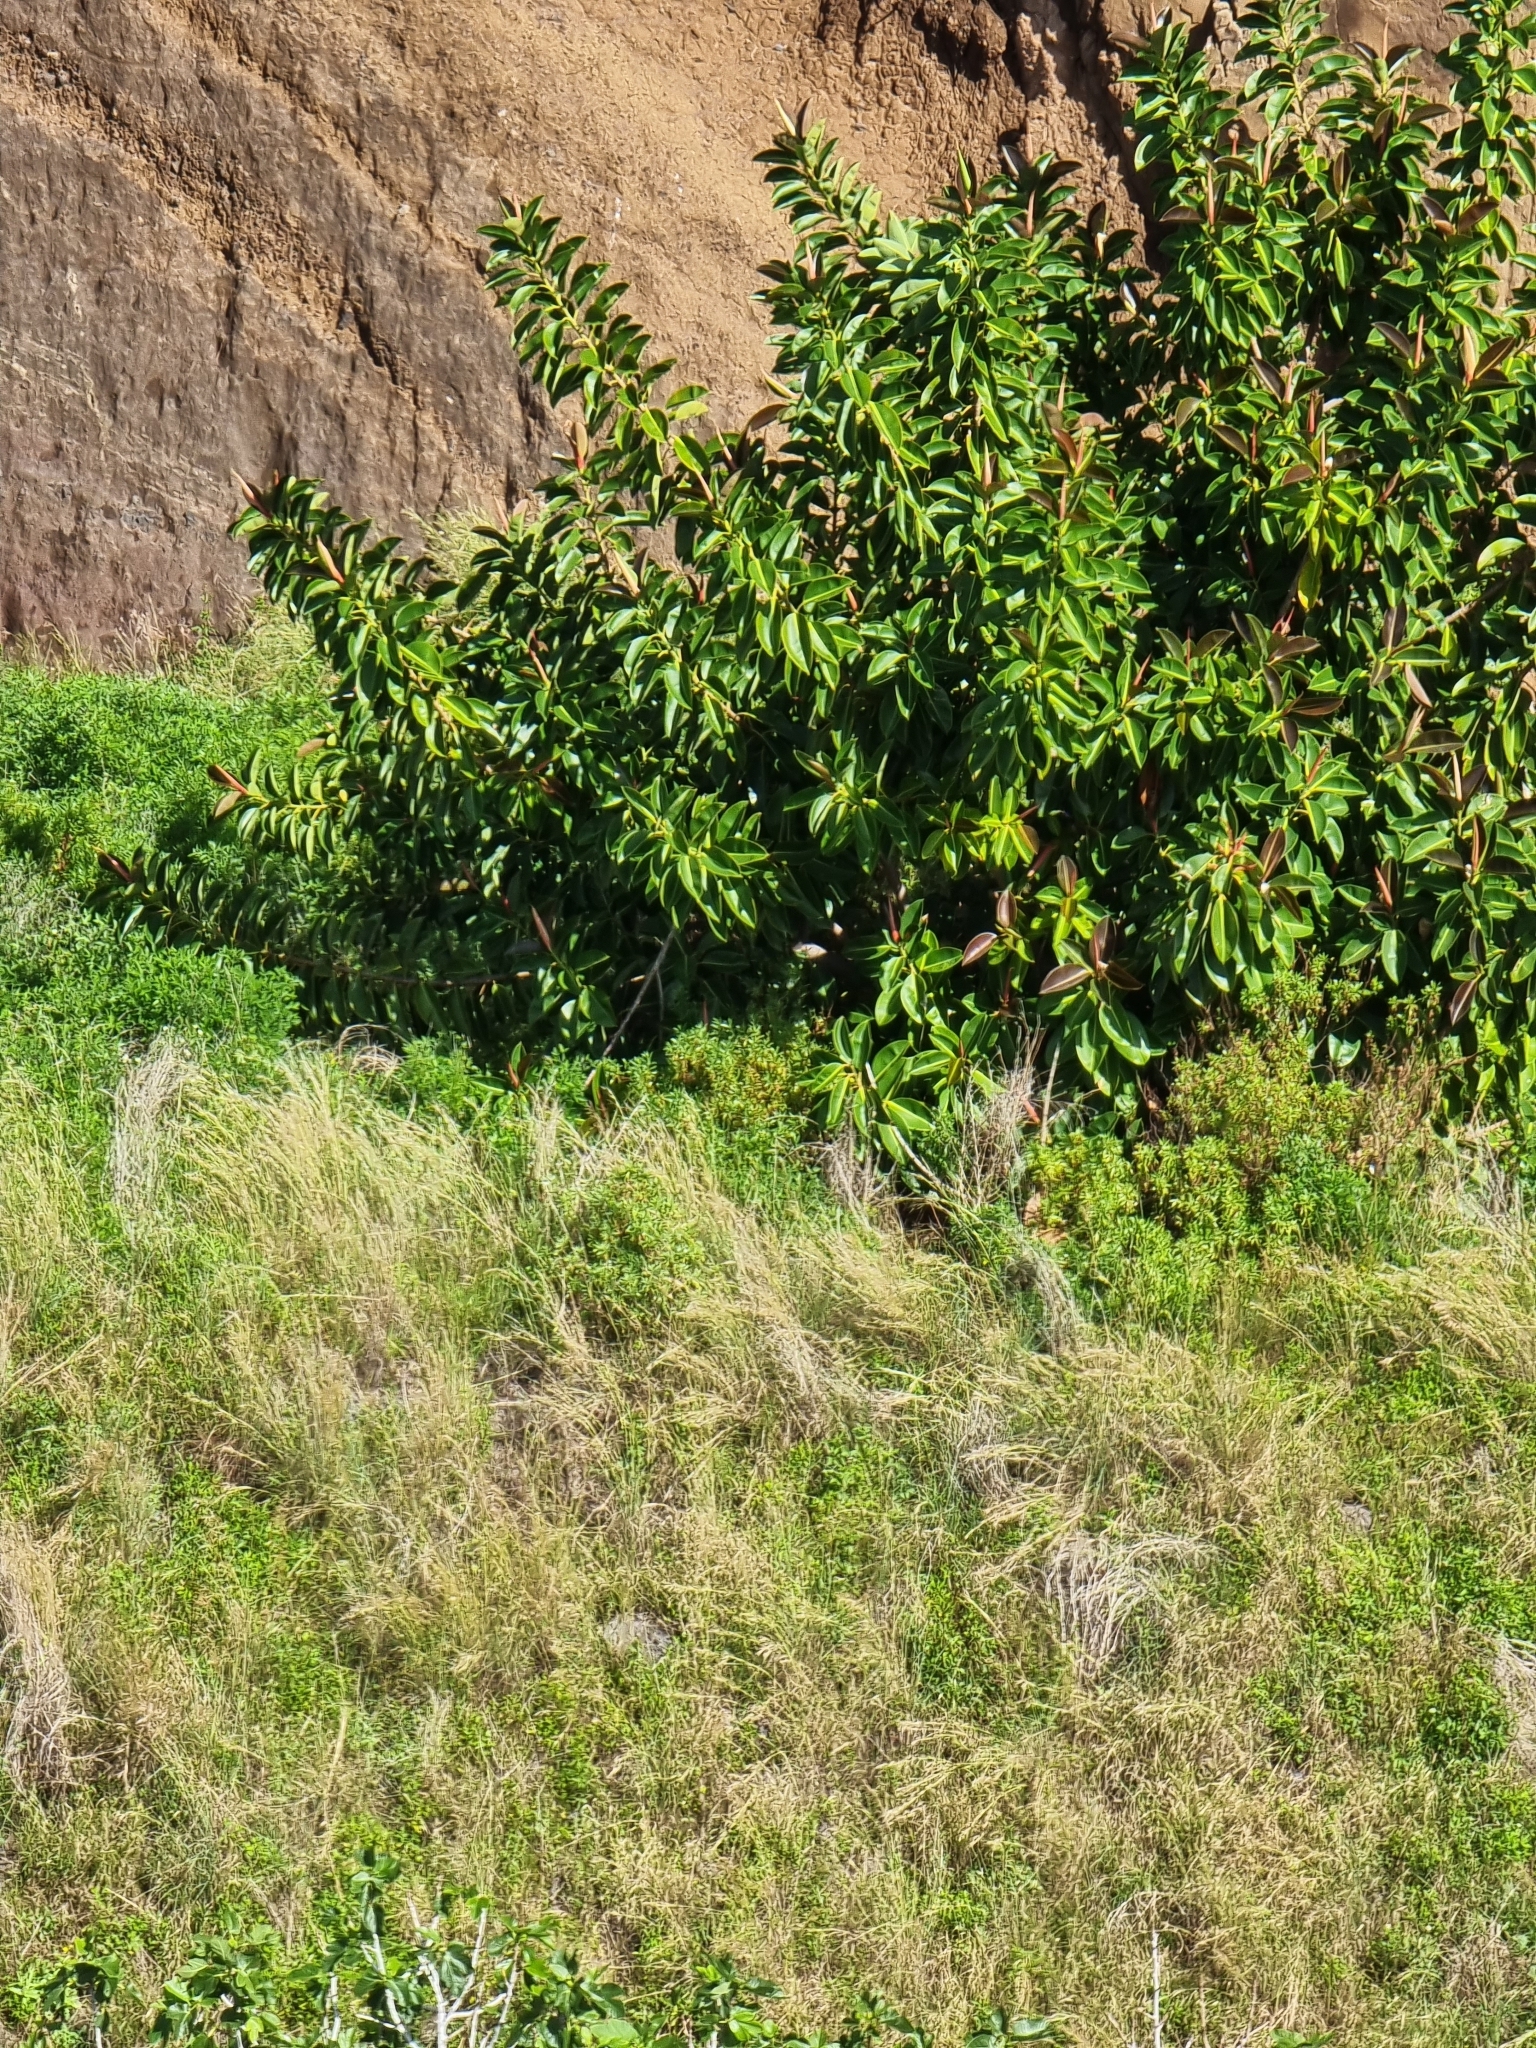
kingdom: Plantae
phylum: Tracheophyta
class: Magnoliopsida
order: Rosales
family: Moraceae
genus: Ficus
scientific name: Ficus elastica
